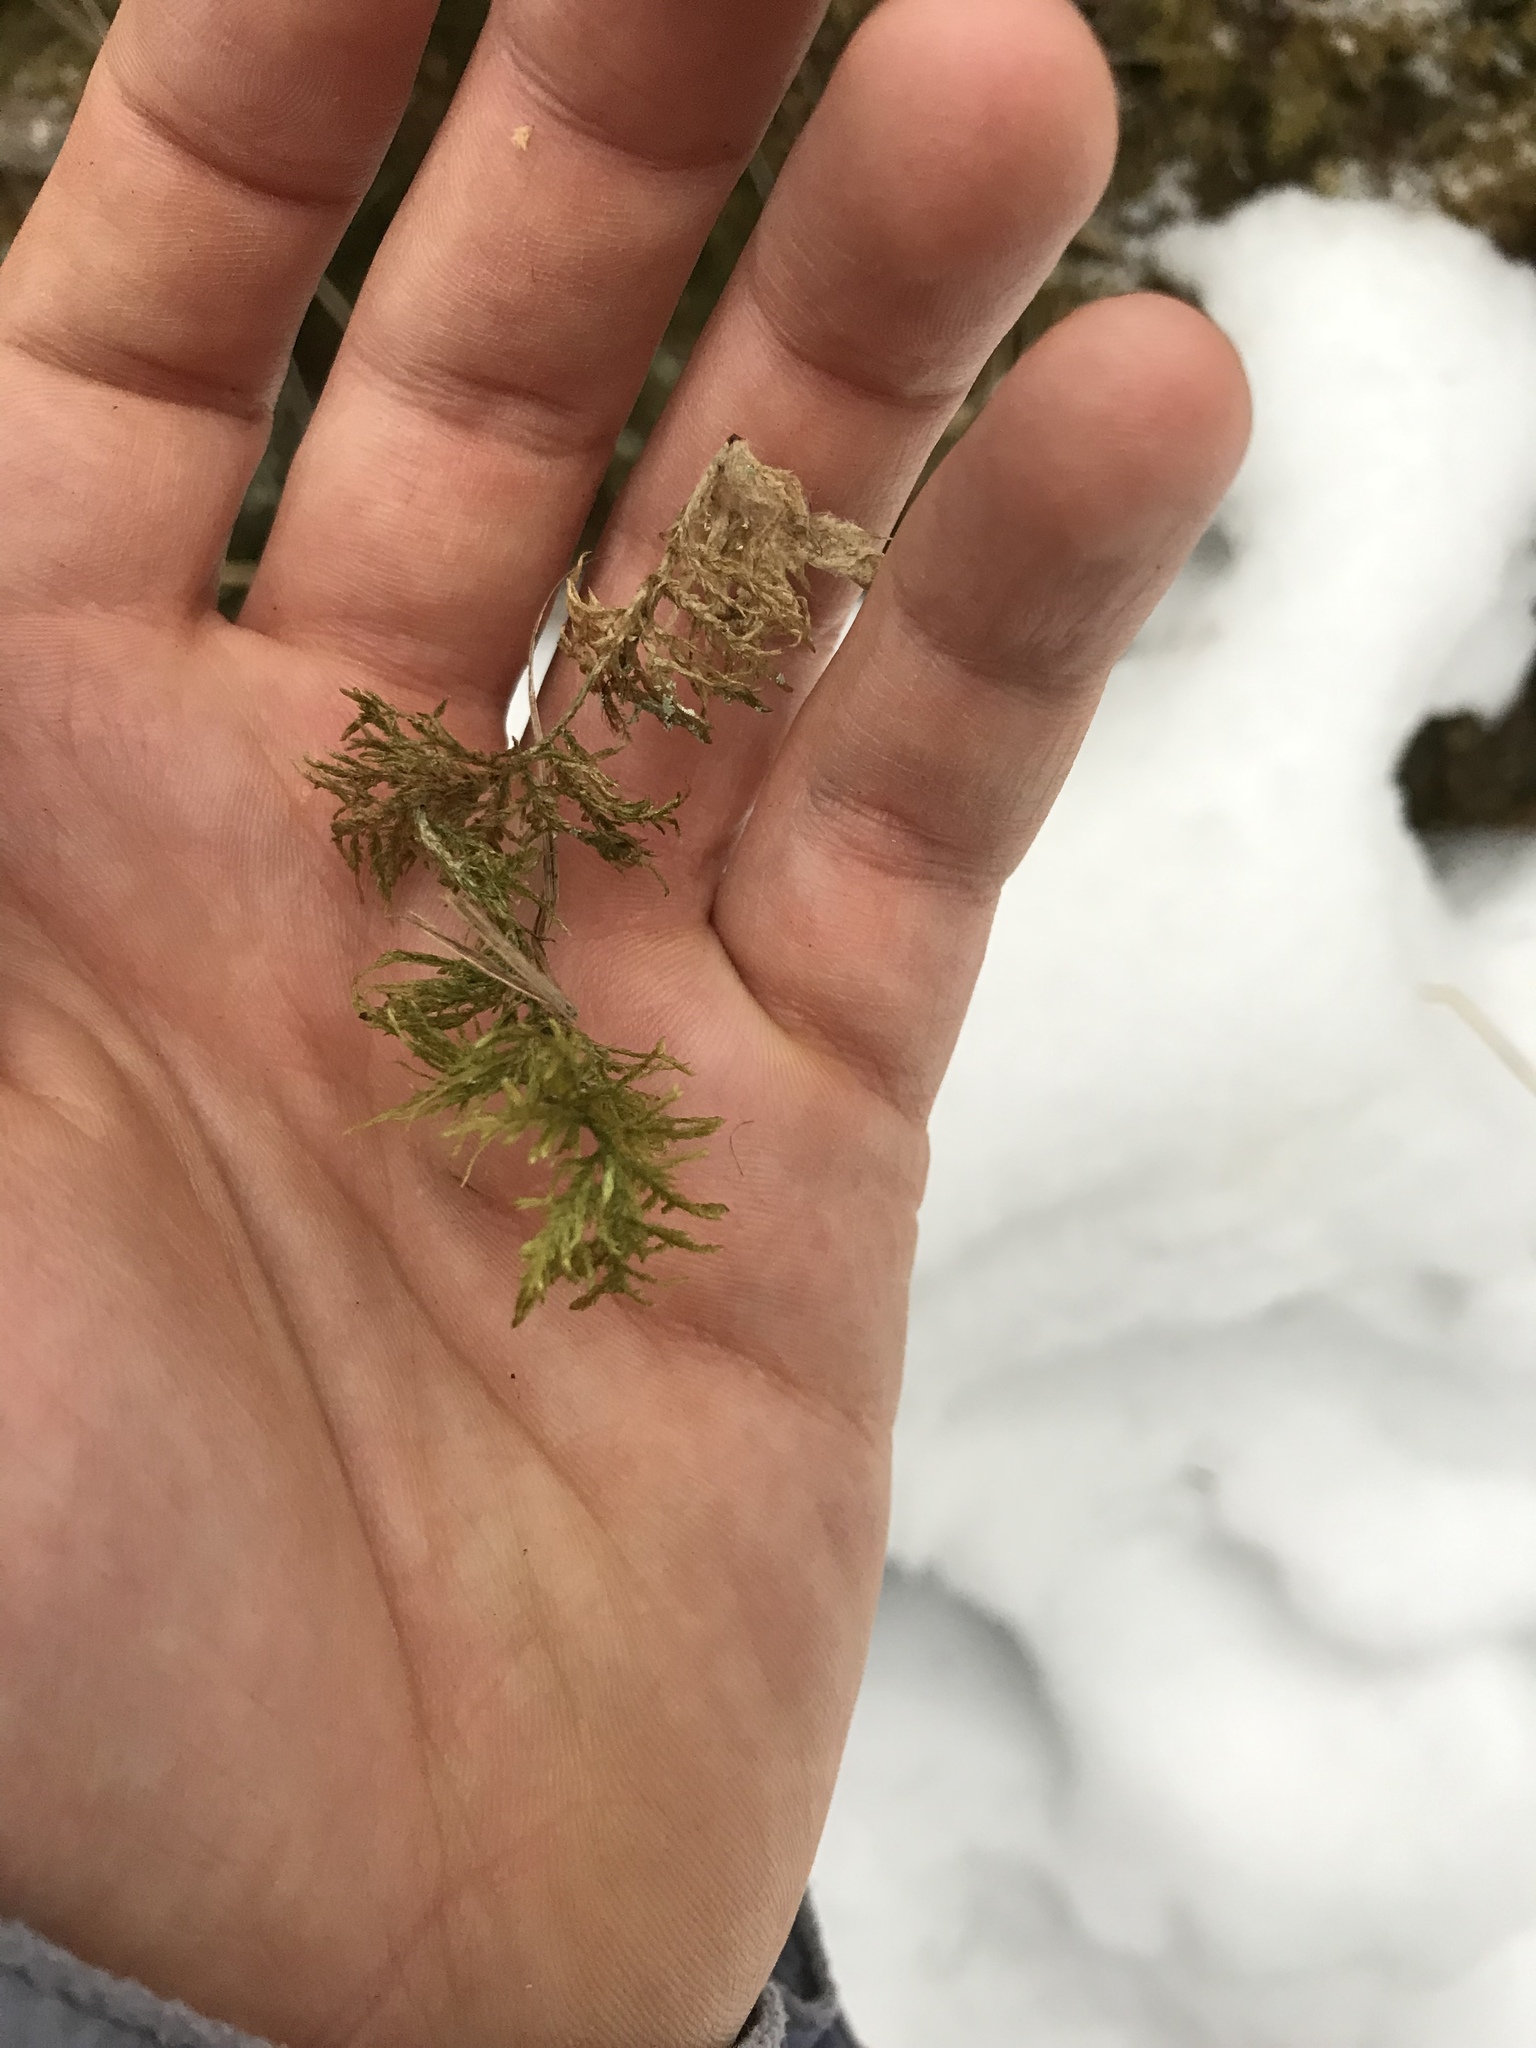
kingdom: Plantae
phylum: Bryophyta
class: Bryopsida
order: Hypnales
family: Hylocomiaceae
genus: Hylocomium
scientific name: Hylocomium splendens
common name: Stairstep moss
